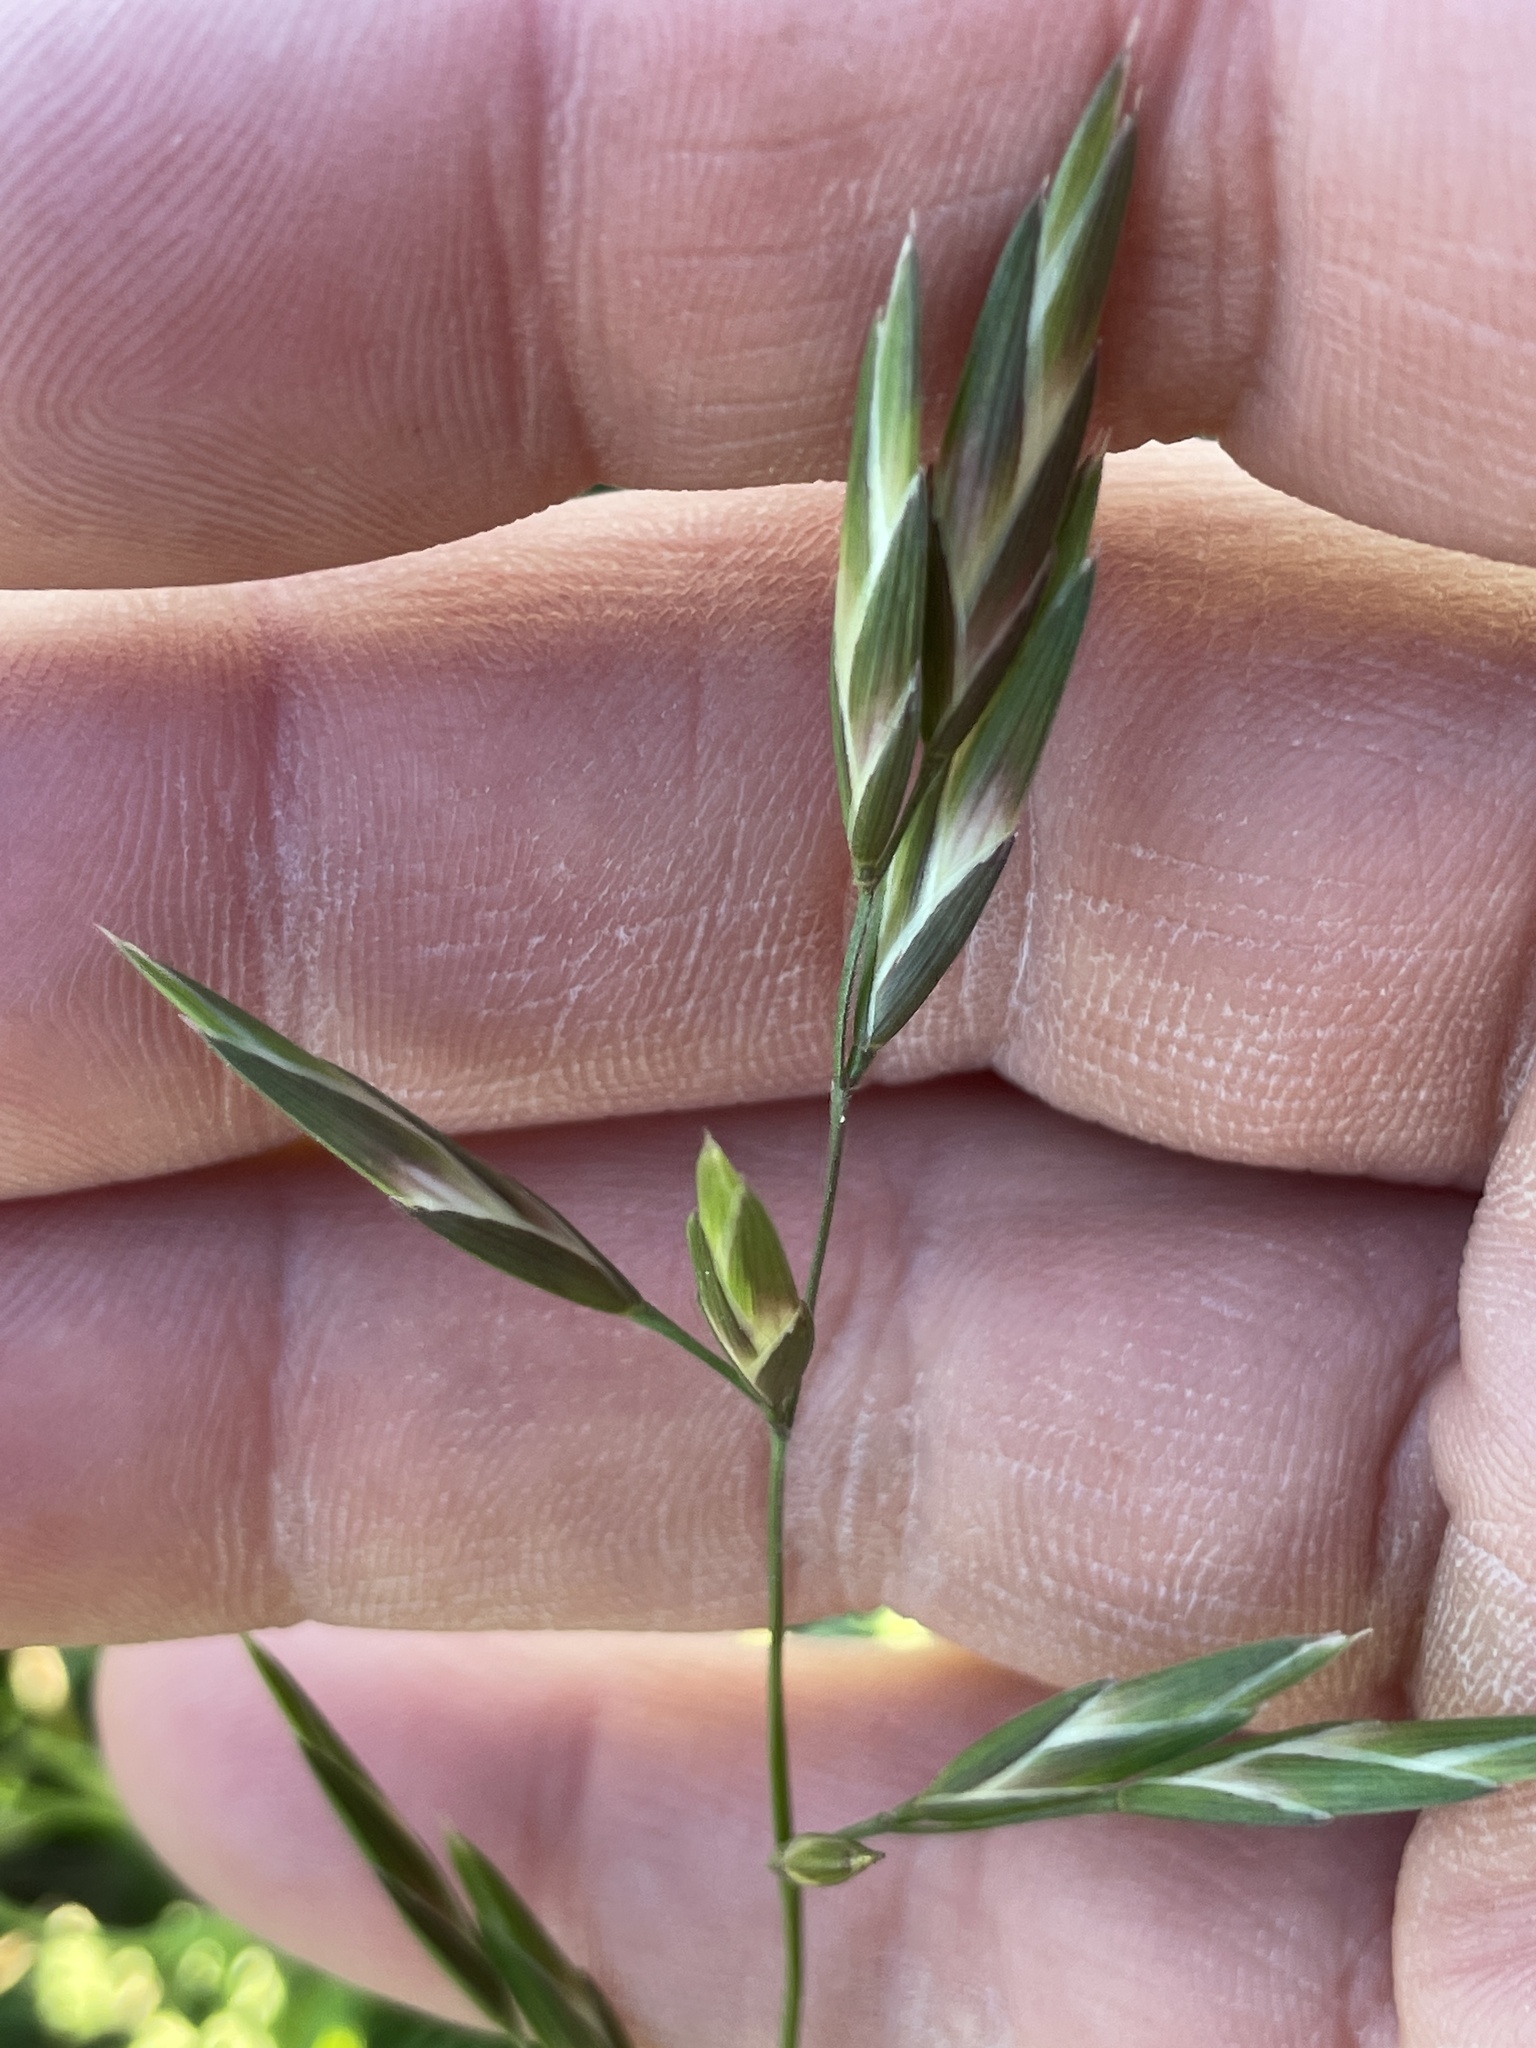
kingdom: Plantae
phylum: Tracheophyta
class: Liliopsida
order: Poales
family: Poaceae
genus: Bromus
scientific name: Bromus catharticus
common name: Rescuegrass
